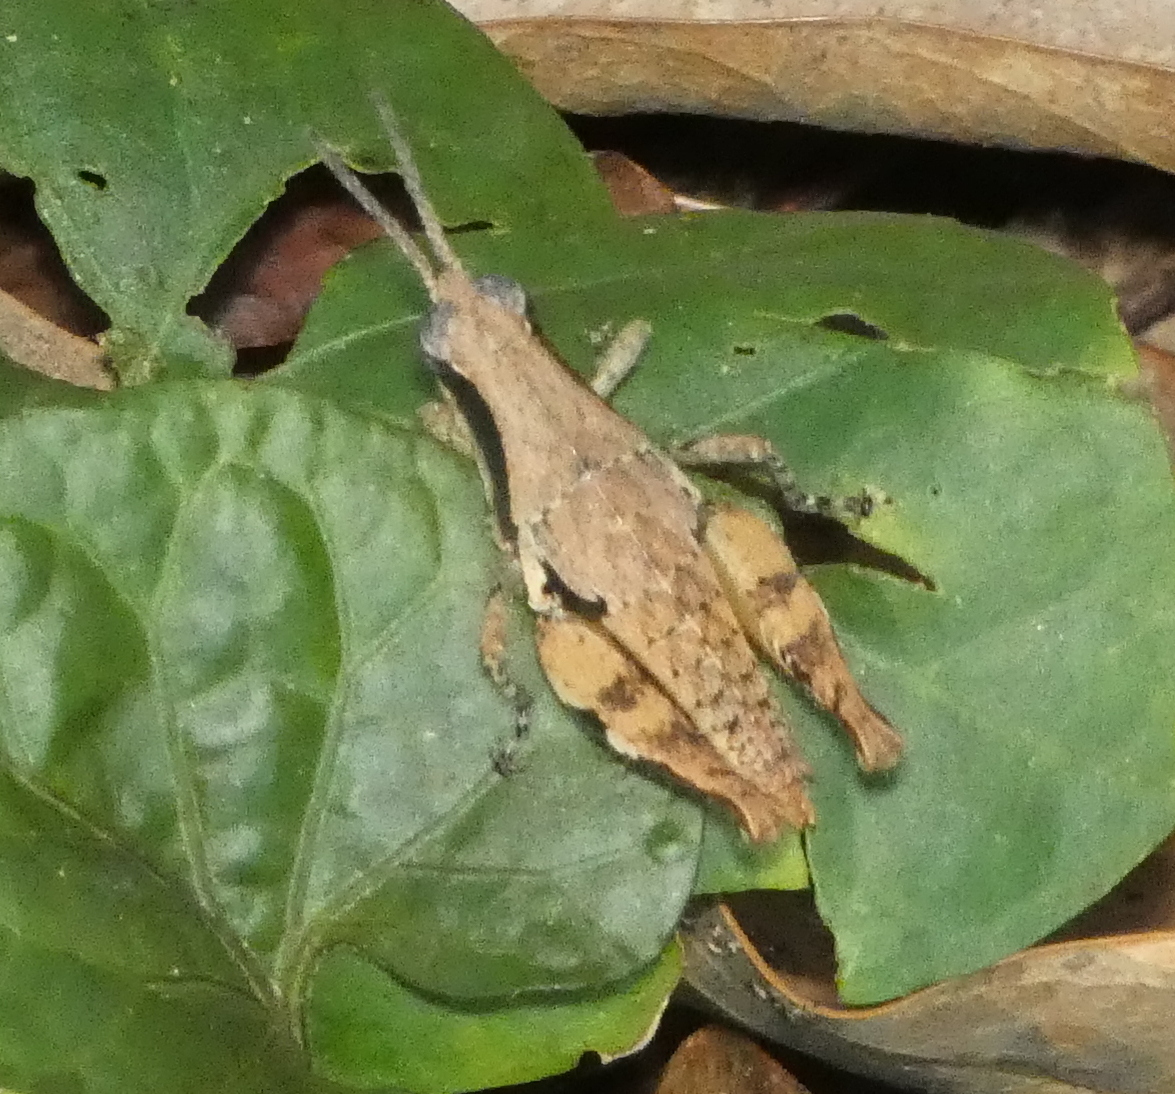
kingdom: Animalia
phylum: Arthropoda
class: Insecta
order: Orthoptera
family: Acrididae
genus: Eujivarus
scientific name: Eujivarus meridionalis
